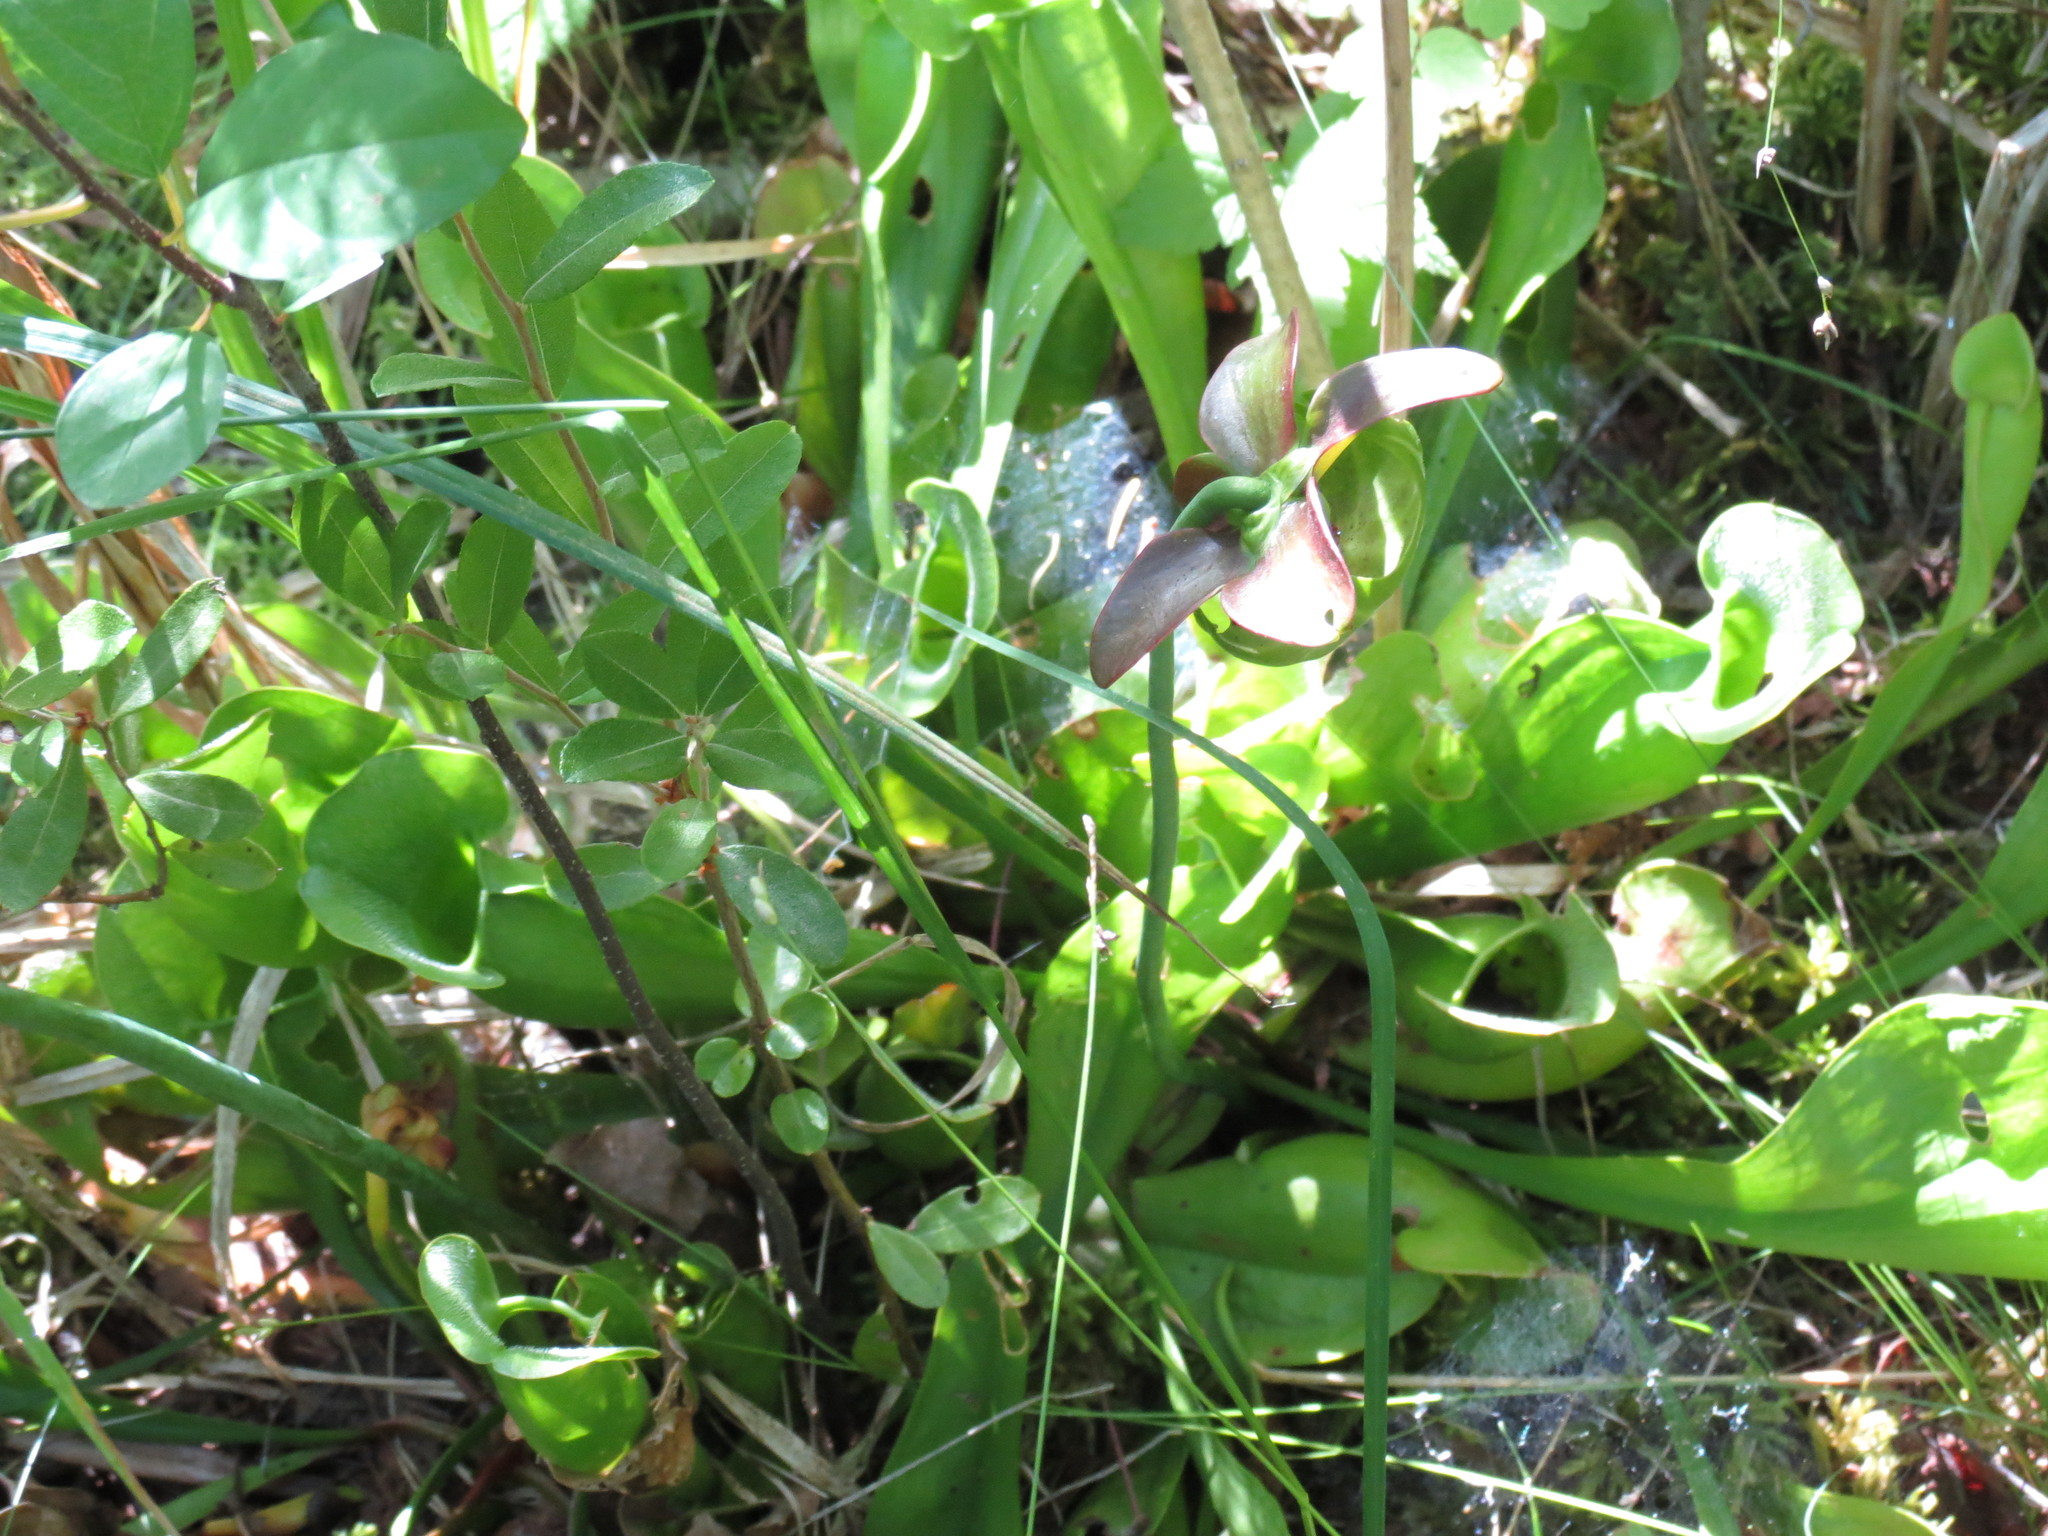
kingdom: Plantae
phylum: Tracheophyta
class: Magnoliopsida
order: Ericales
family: Sarraceniaceae
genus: Sarracenia
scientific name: Sarracenia purpurea
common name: Pitcherplant
